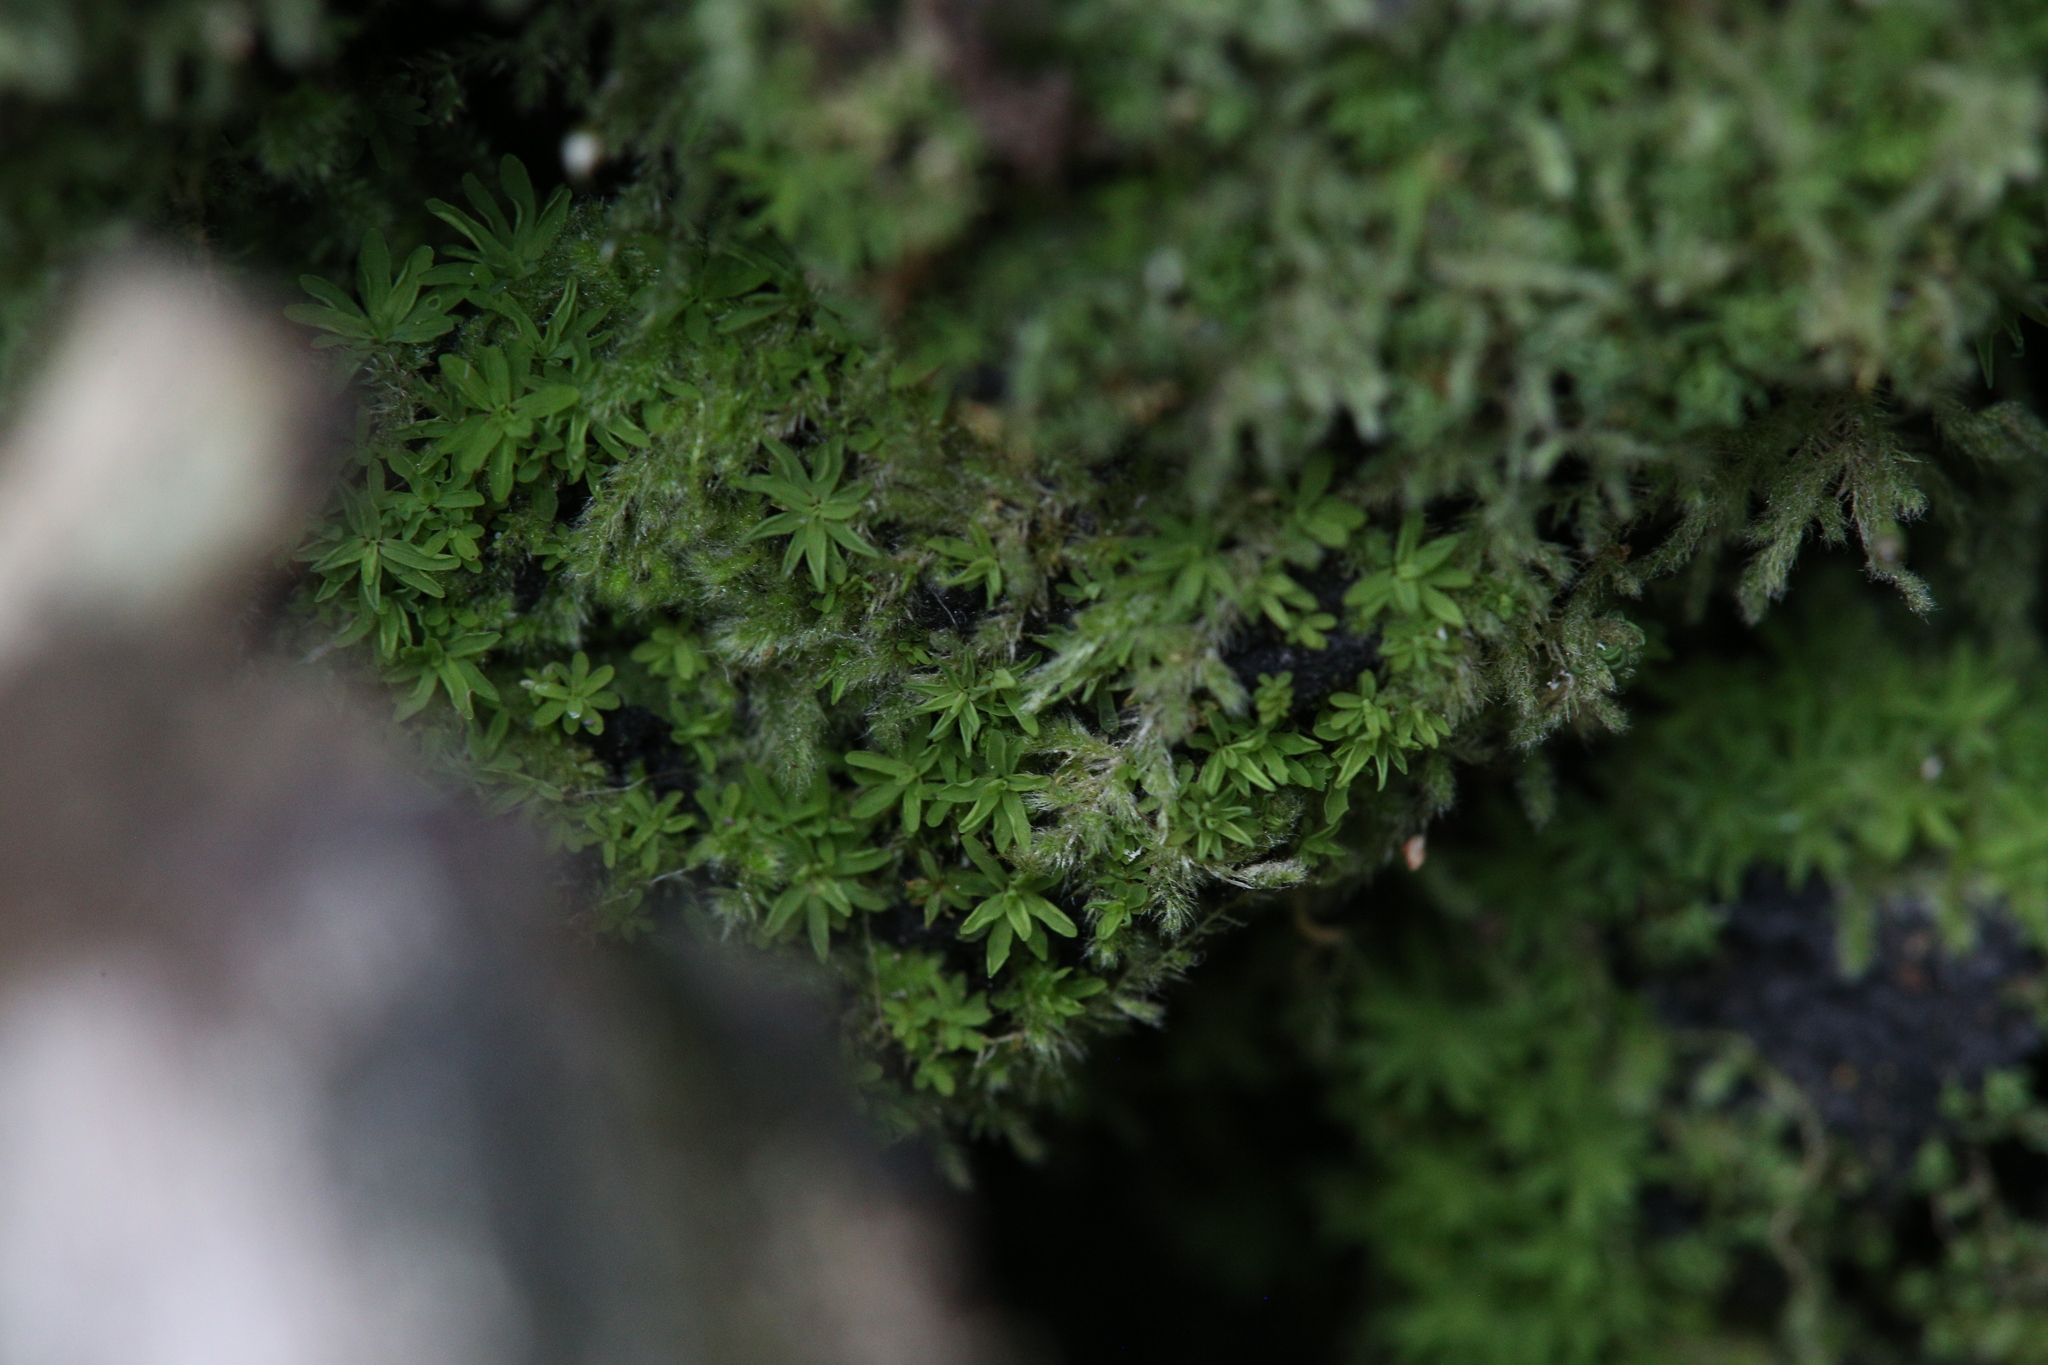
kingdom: Plantae
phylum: Bryophyta
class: Bryopsida
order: Hypnales
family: Fabroniaceae
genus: Fabronia
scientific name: Fabronia hampeana
